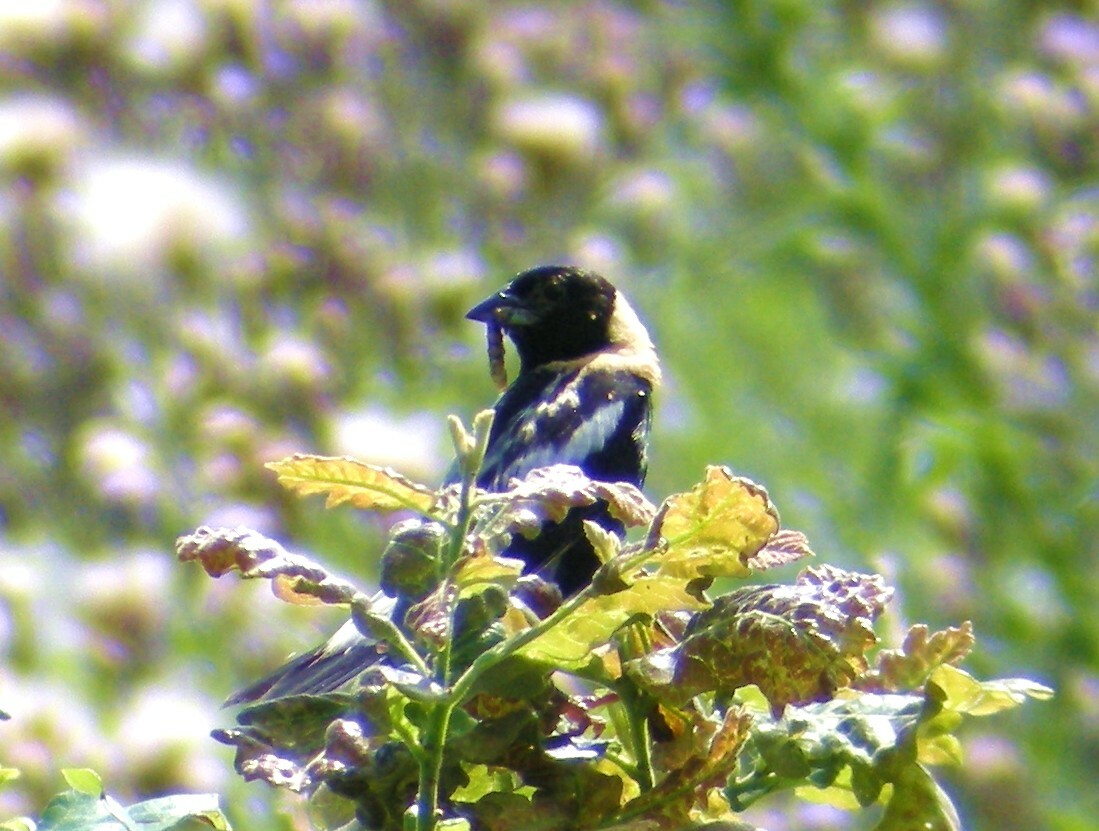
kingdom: Animalia
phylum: Chordata
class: Aves
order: Passeriformes
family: Icteridae
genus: Dolichonyx
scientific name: Dolichonyx oryzivorus
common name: Bobolink
